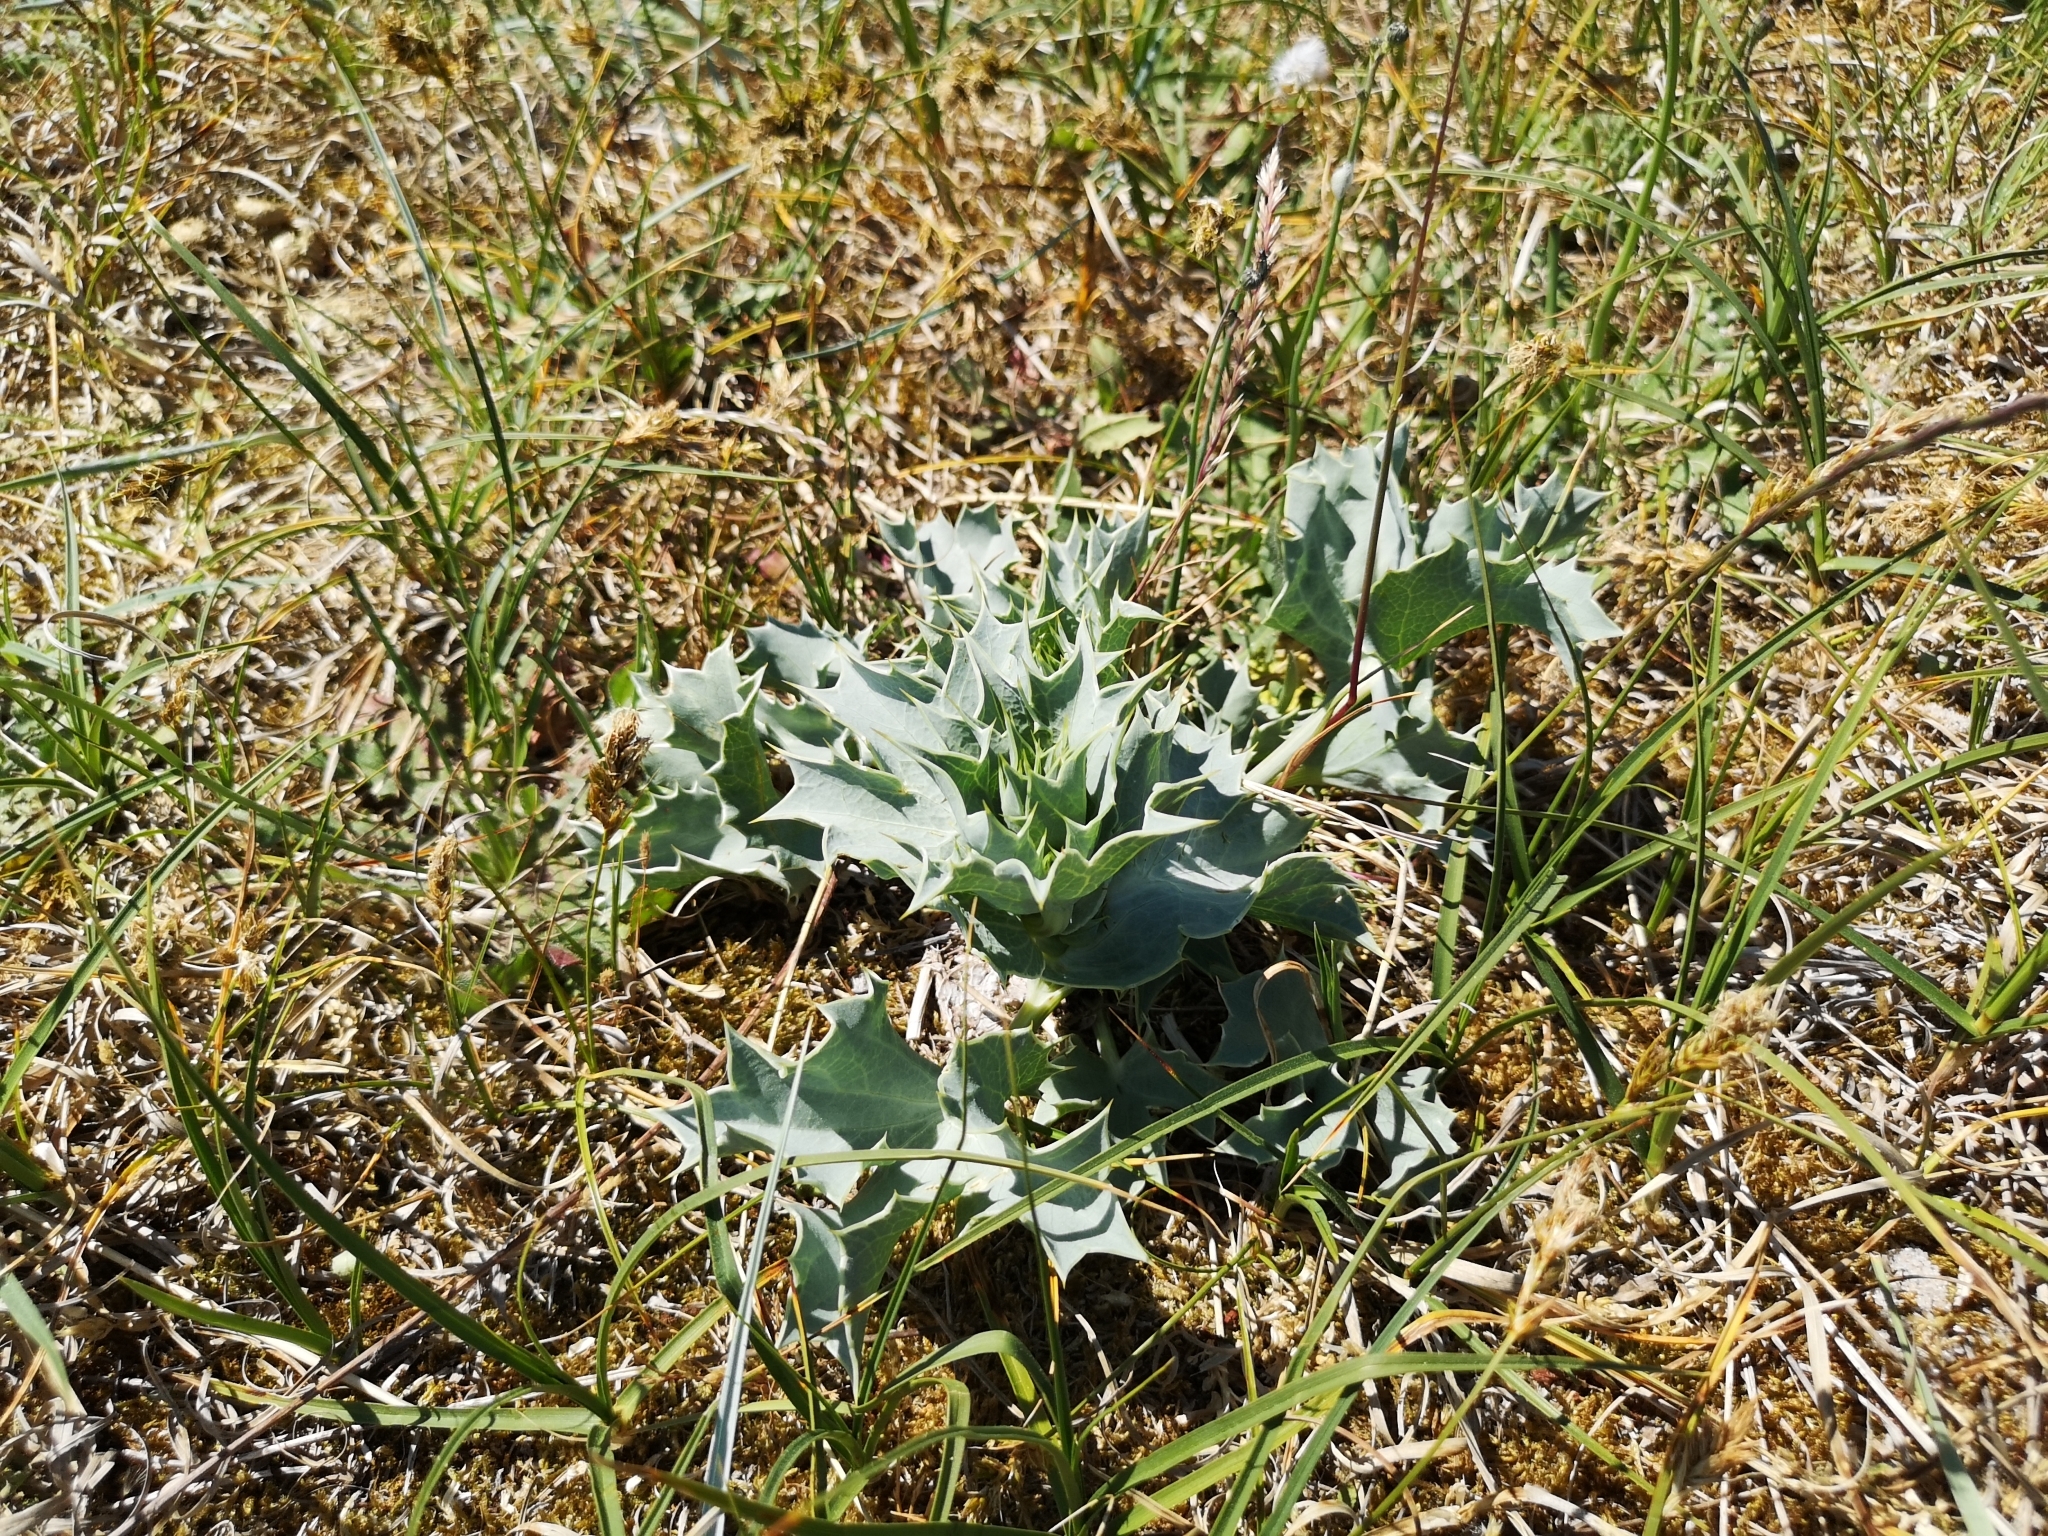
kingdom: Plantae
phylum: Tracheophyta
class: Magnoliopsida
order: Apiales
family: Apiaceae
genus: Eryngium
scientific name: Eryngium maritimum
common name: Sea-holly
